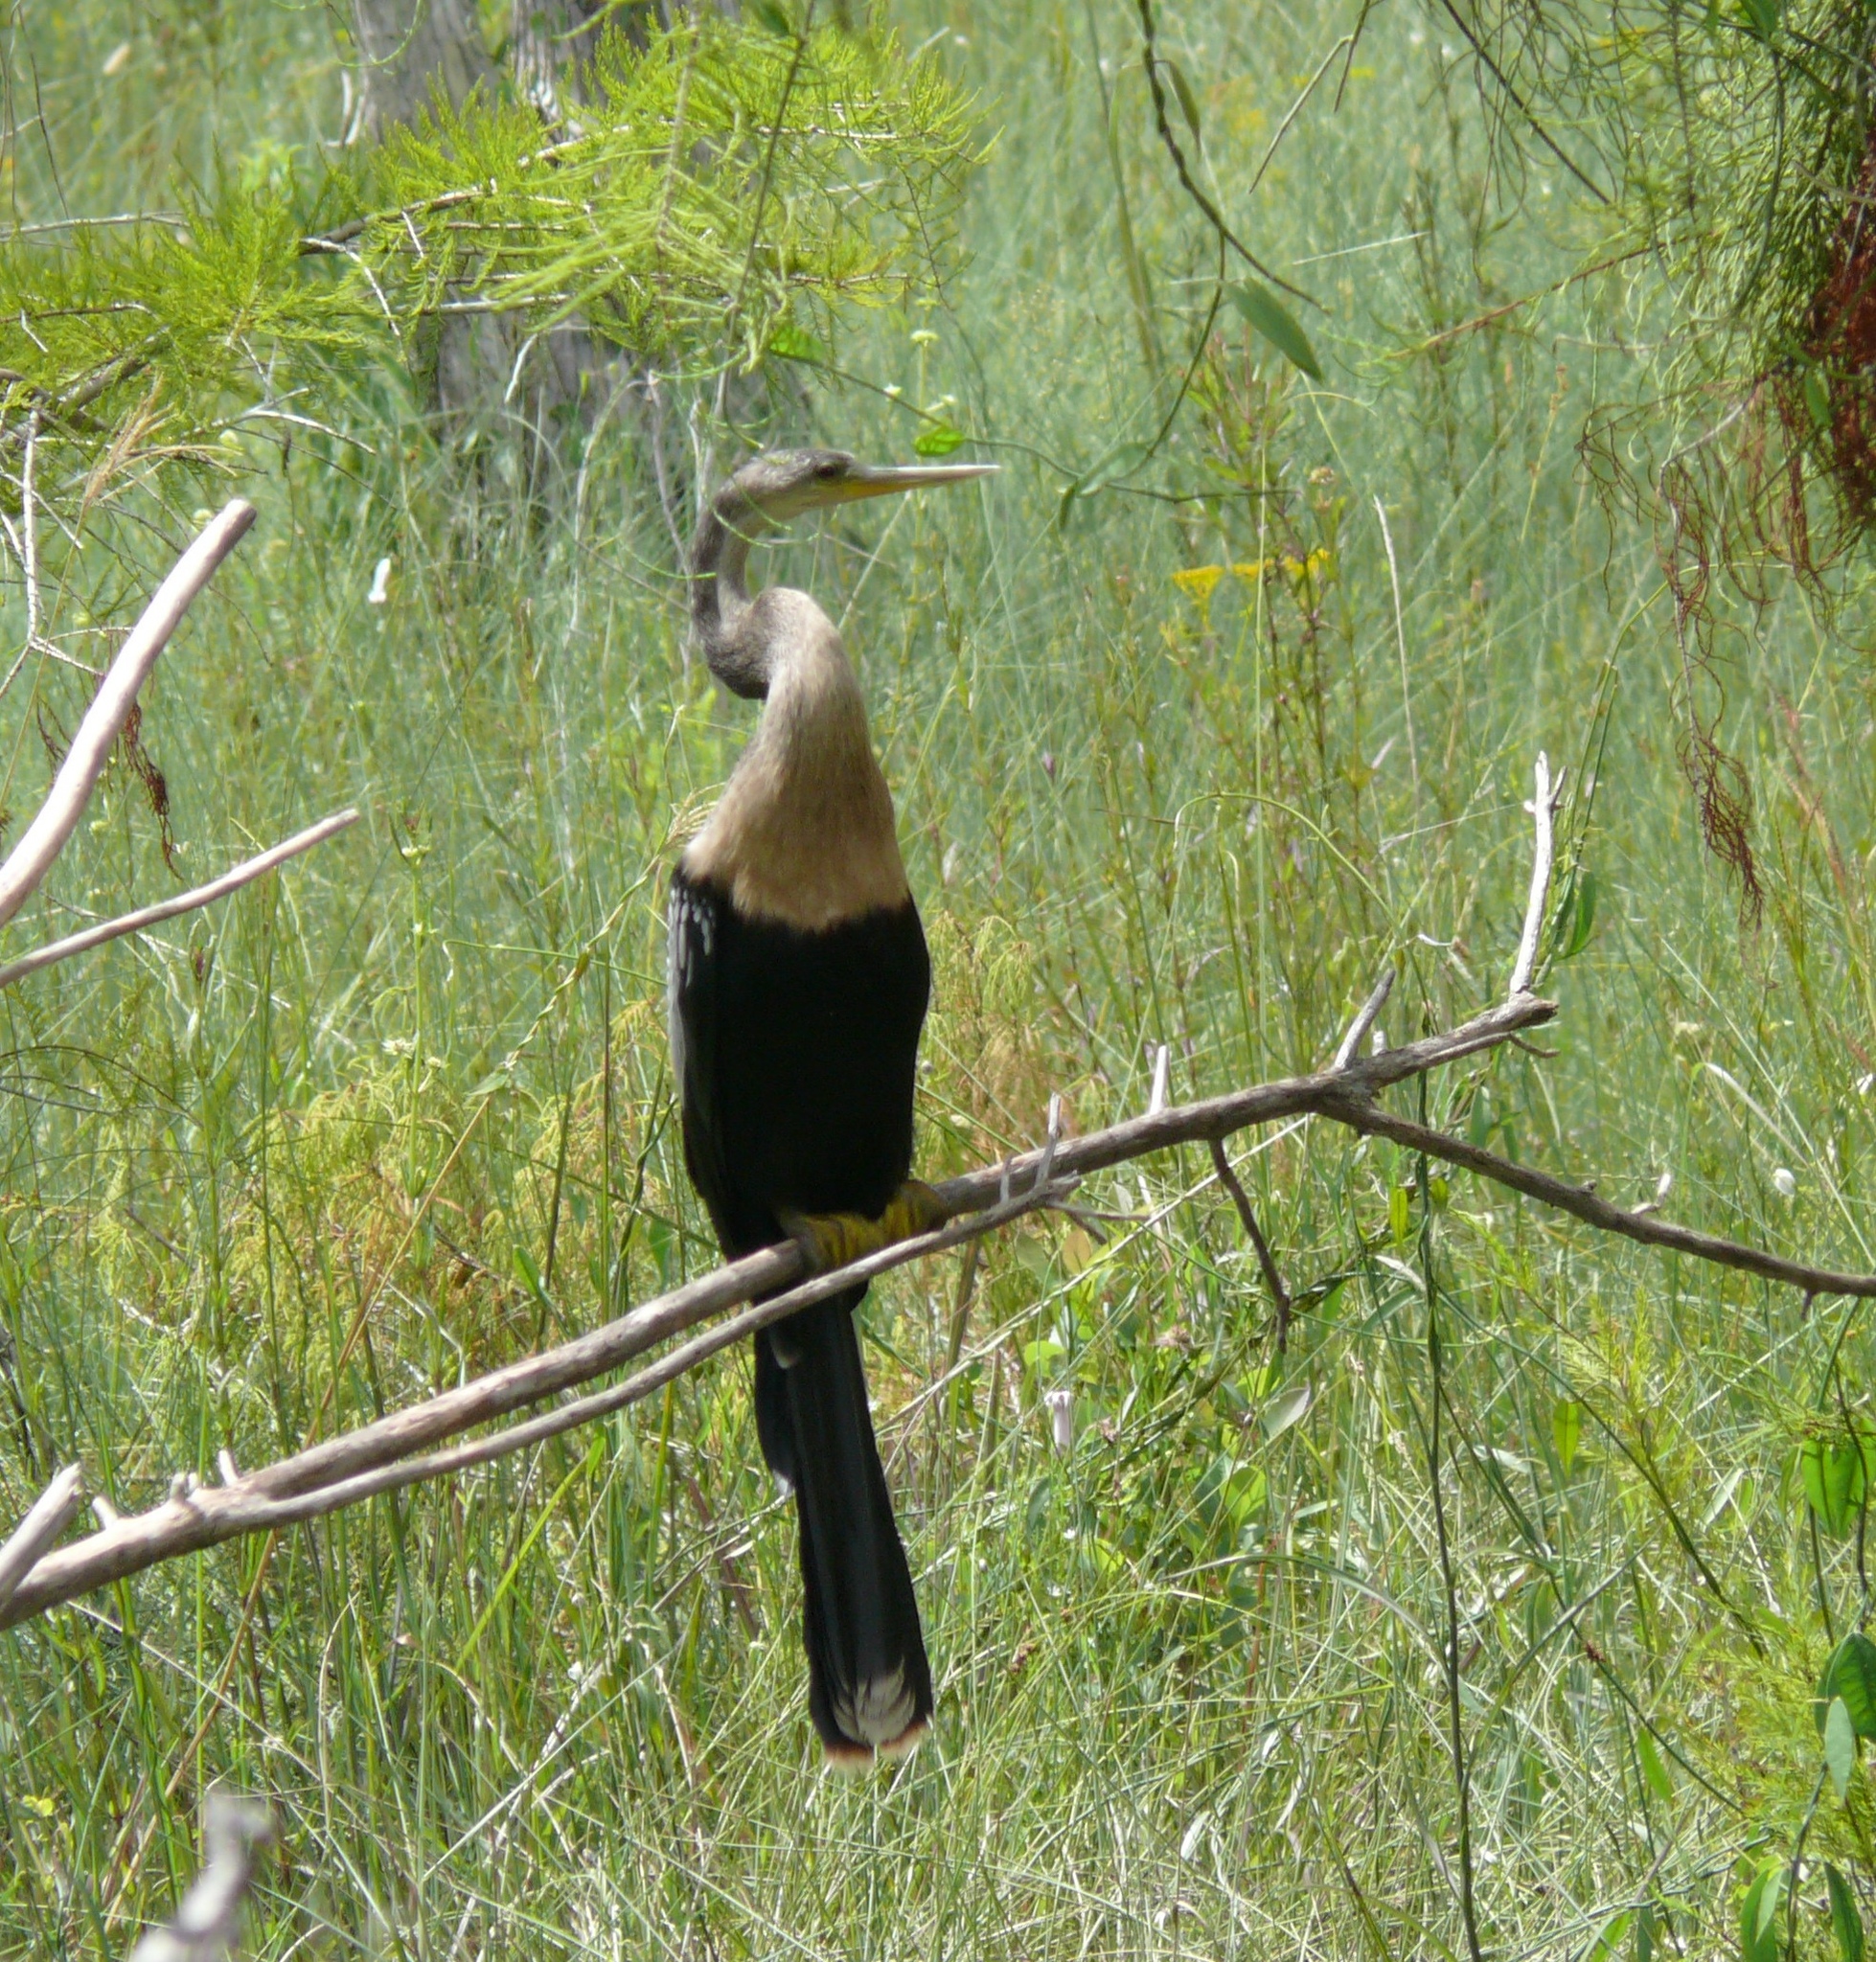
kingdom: Animalia
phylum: Chordata
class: Aves
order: Suliformes
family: Anhingidae
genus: Anhinga
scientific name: Anhinga anhinga
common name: Anhinga
